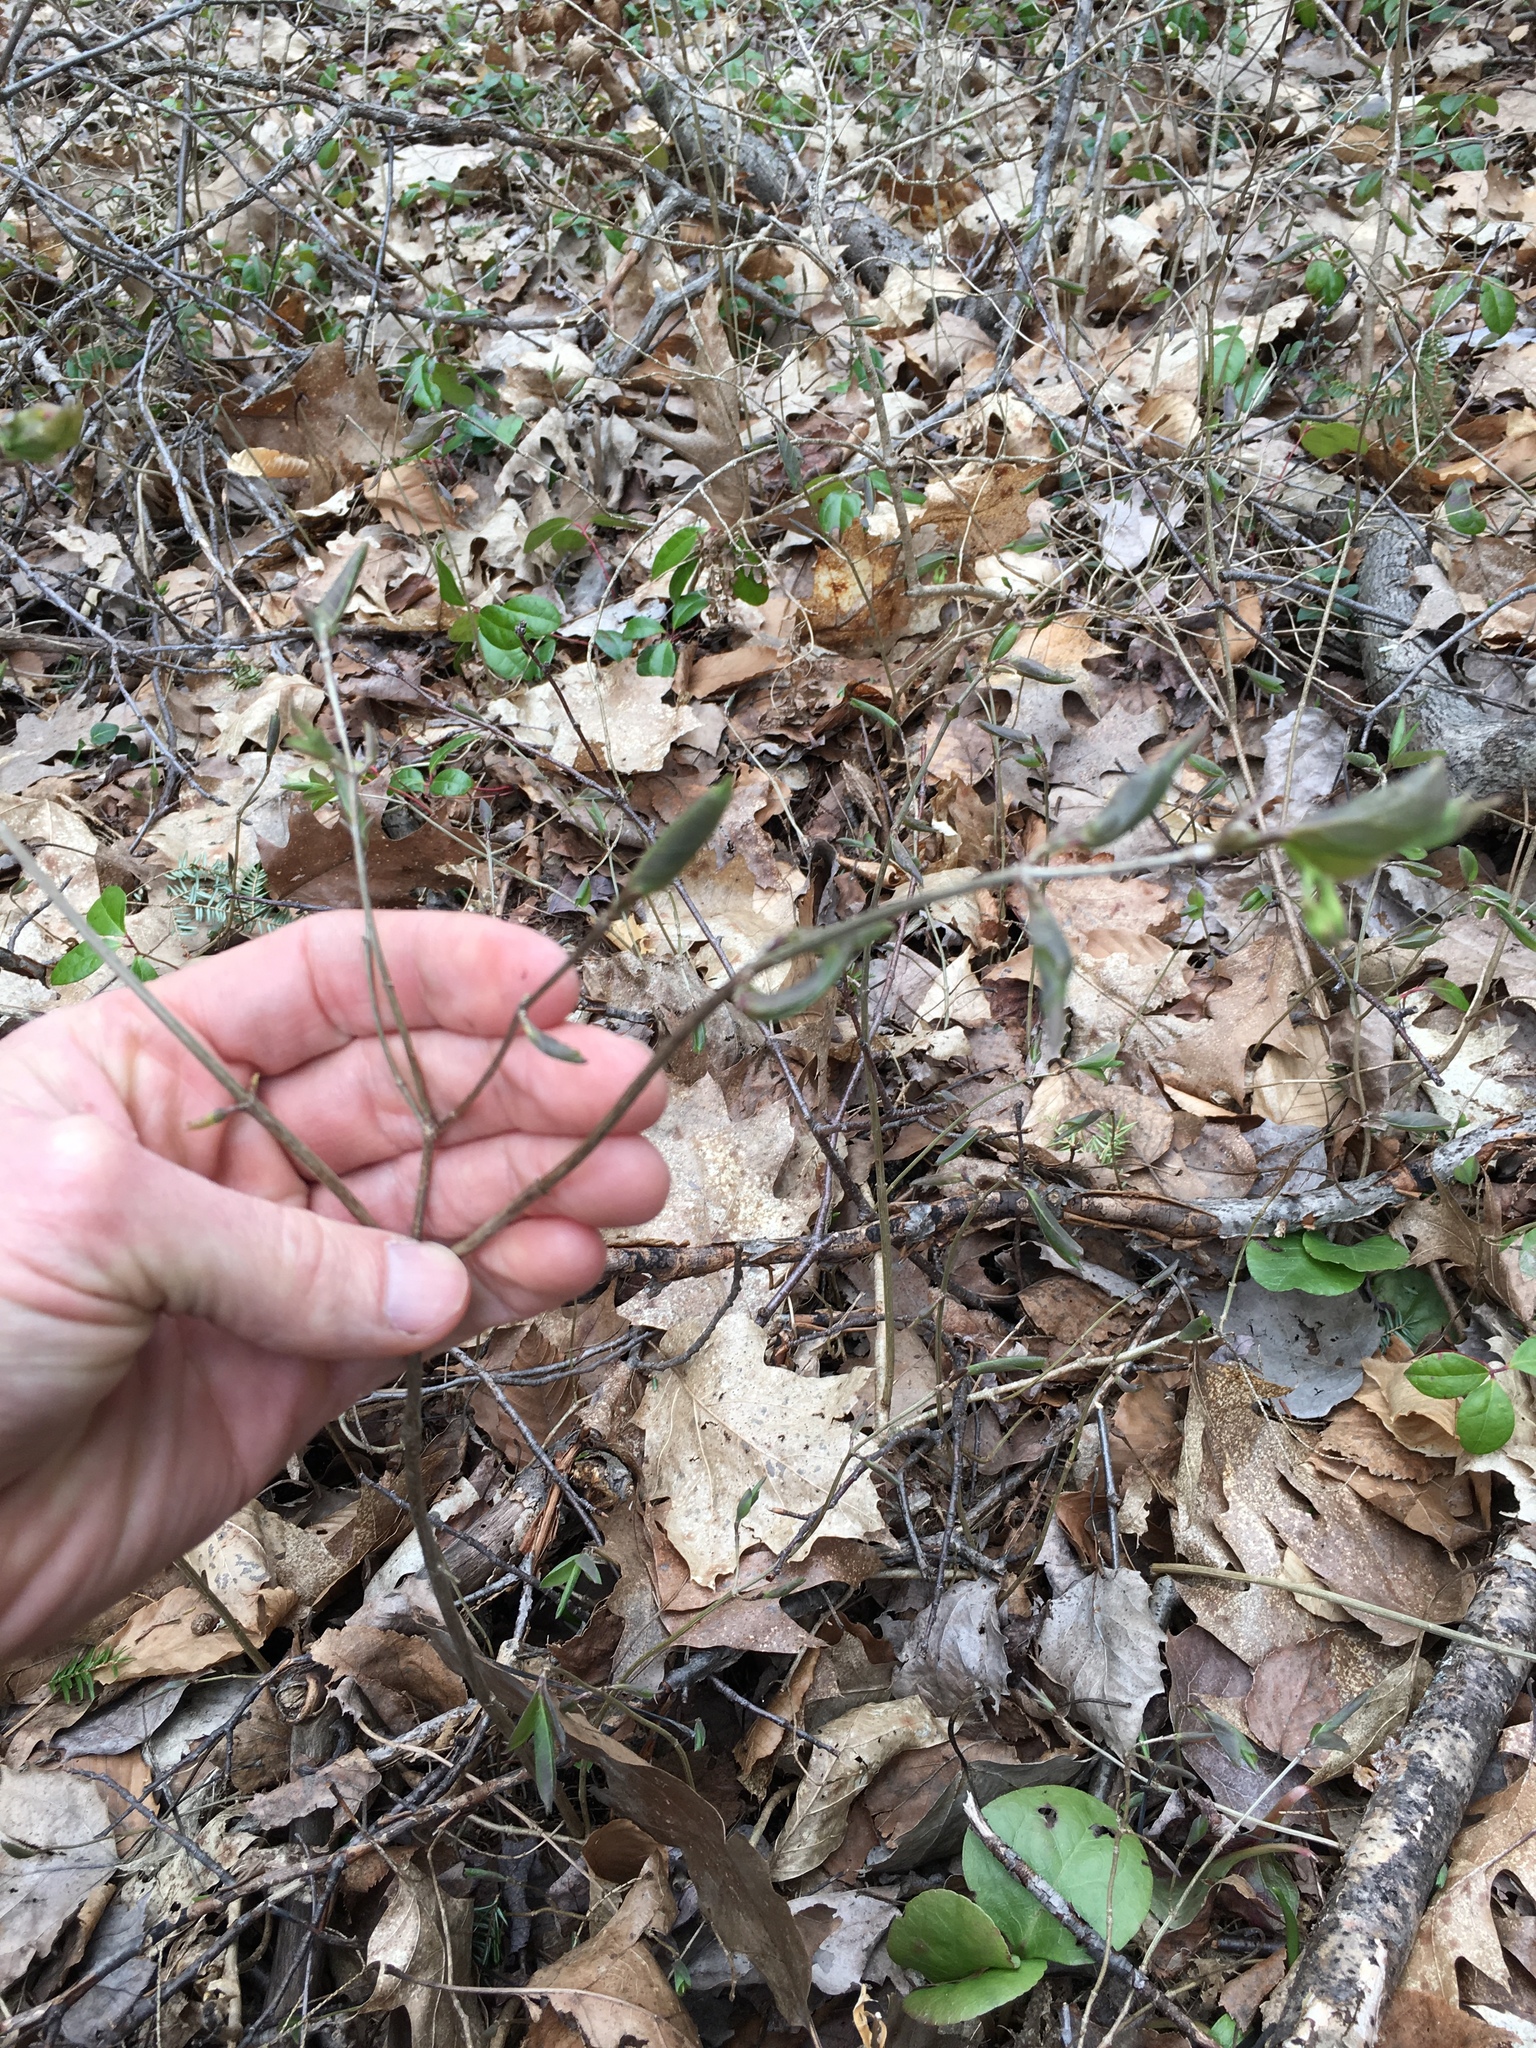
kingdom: Plantae
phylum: Tracheophyta
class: Magnoliopsida
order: Dipsacales
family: Caprifoliaceae
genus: Lonicera
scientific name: Lonicera canadensis
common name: American fly-honeysuckle
